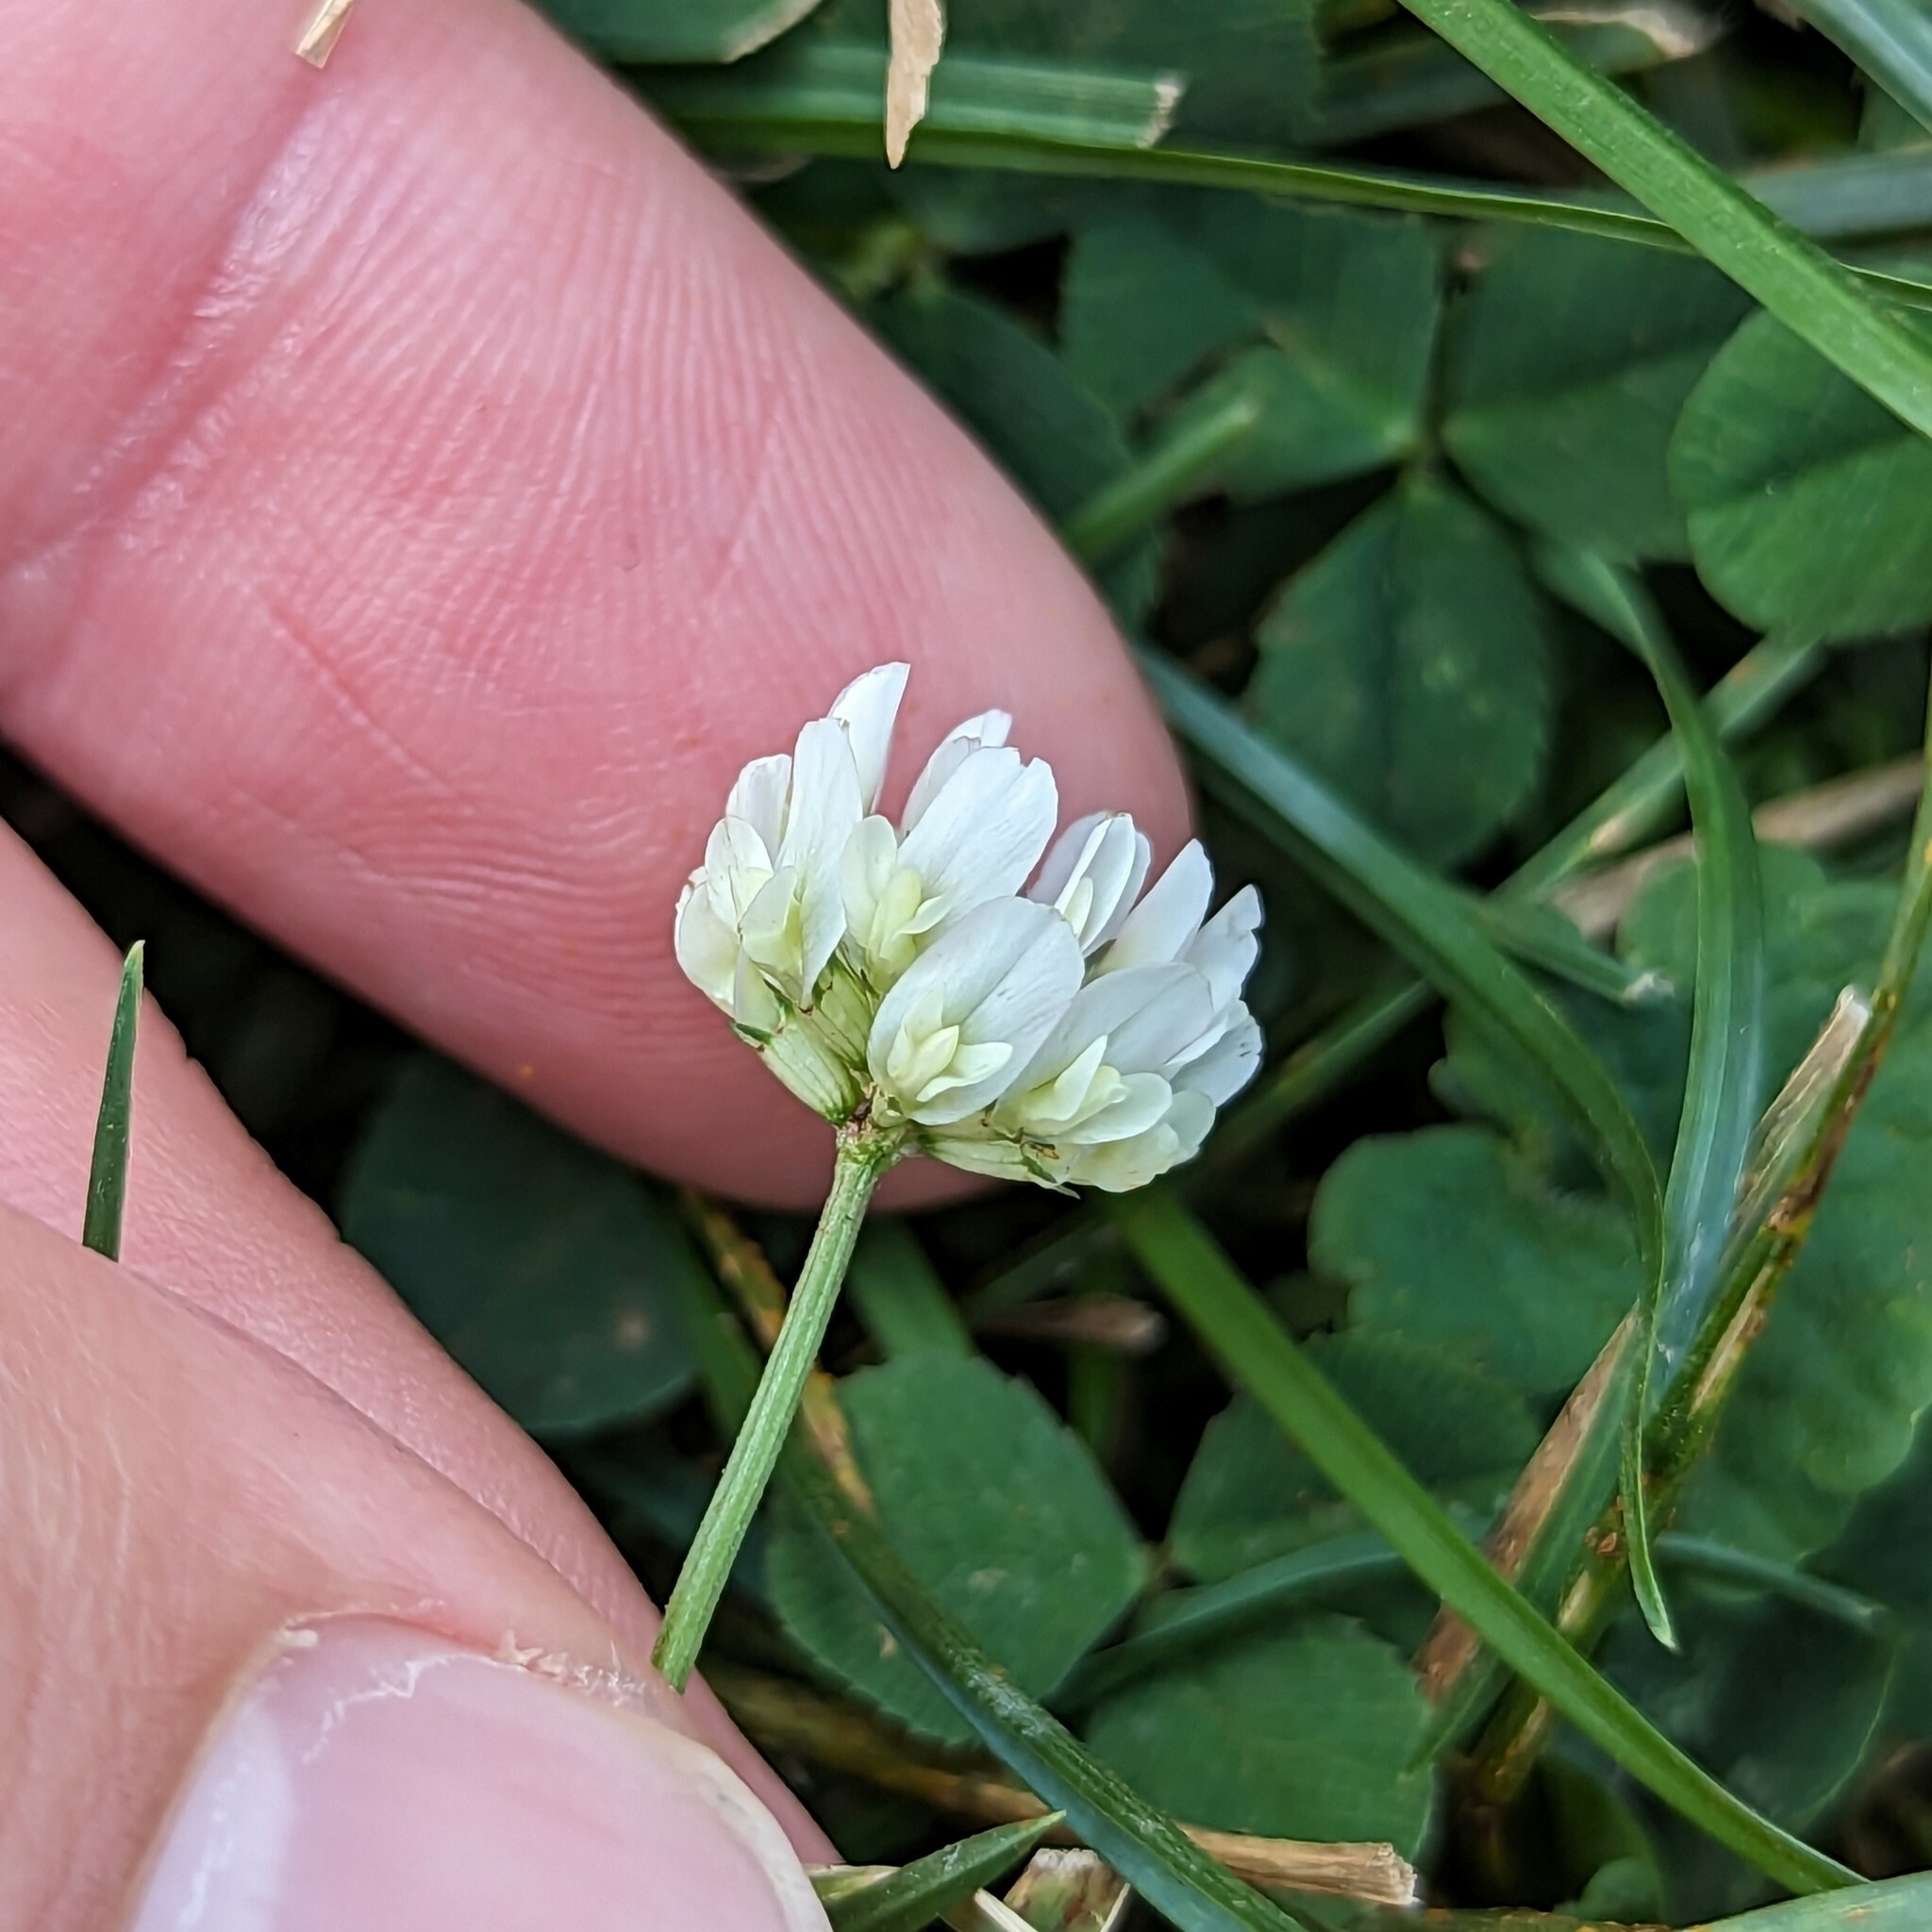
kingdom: Plantae
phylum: Tracheophyta
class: Magnoliopsida
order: Fabales
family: Fabaceae
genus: Trifolium
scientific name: Trifolium repens
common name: White clover
